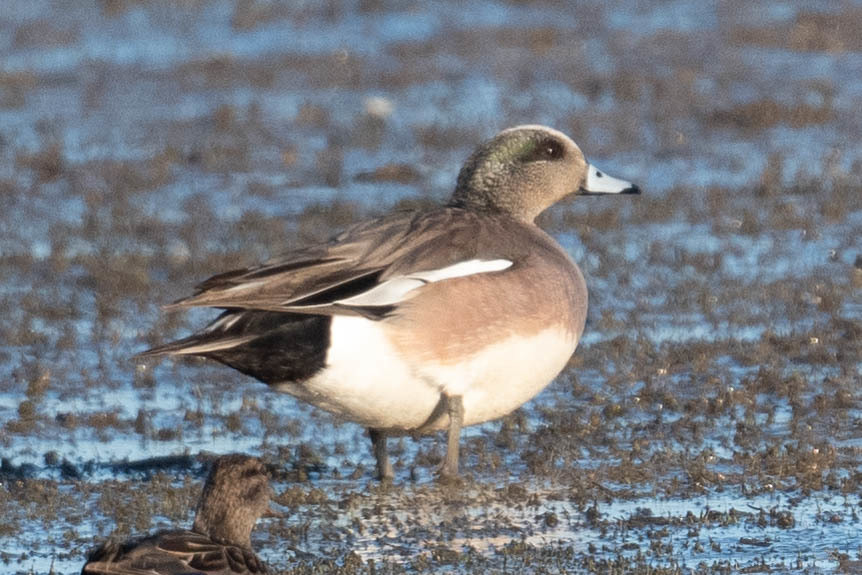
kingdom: Animalia
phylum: Chordata
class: Aves
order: Anseriformes
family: Anatidae
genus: Mareca
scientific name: Mareca americana
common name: American wigeon
